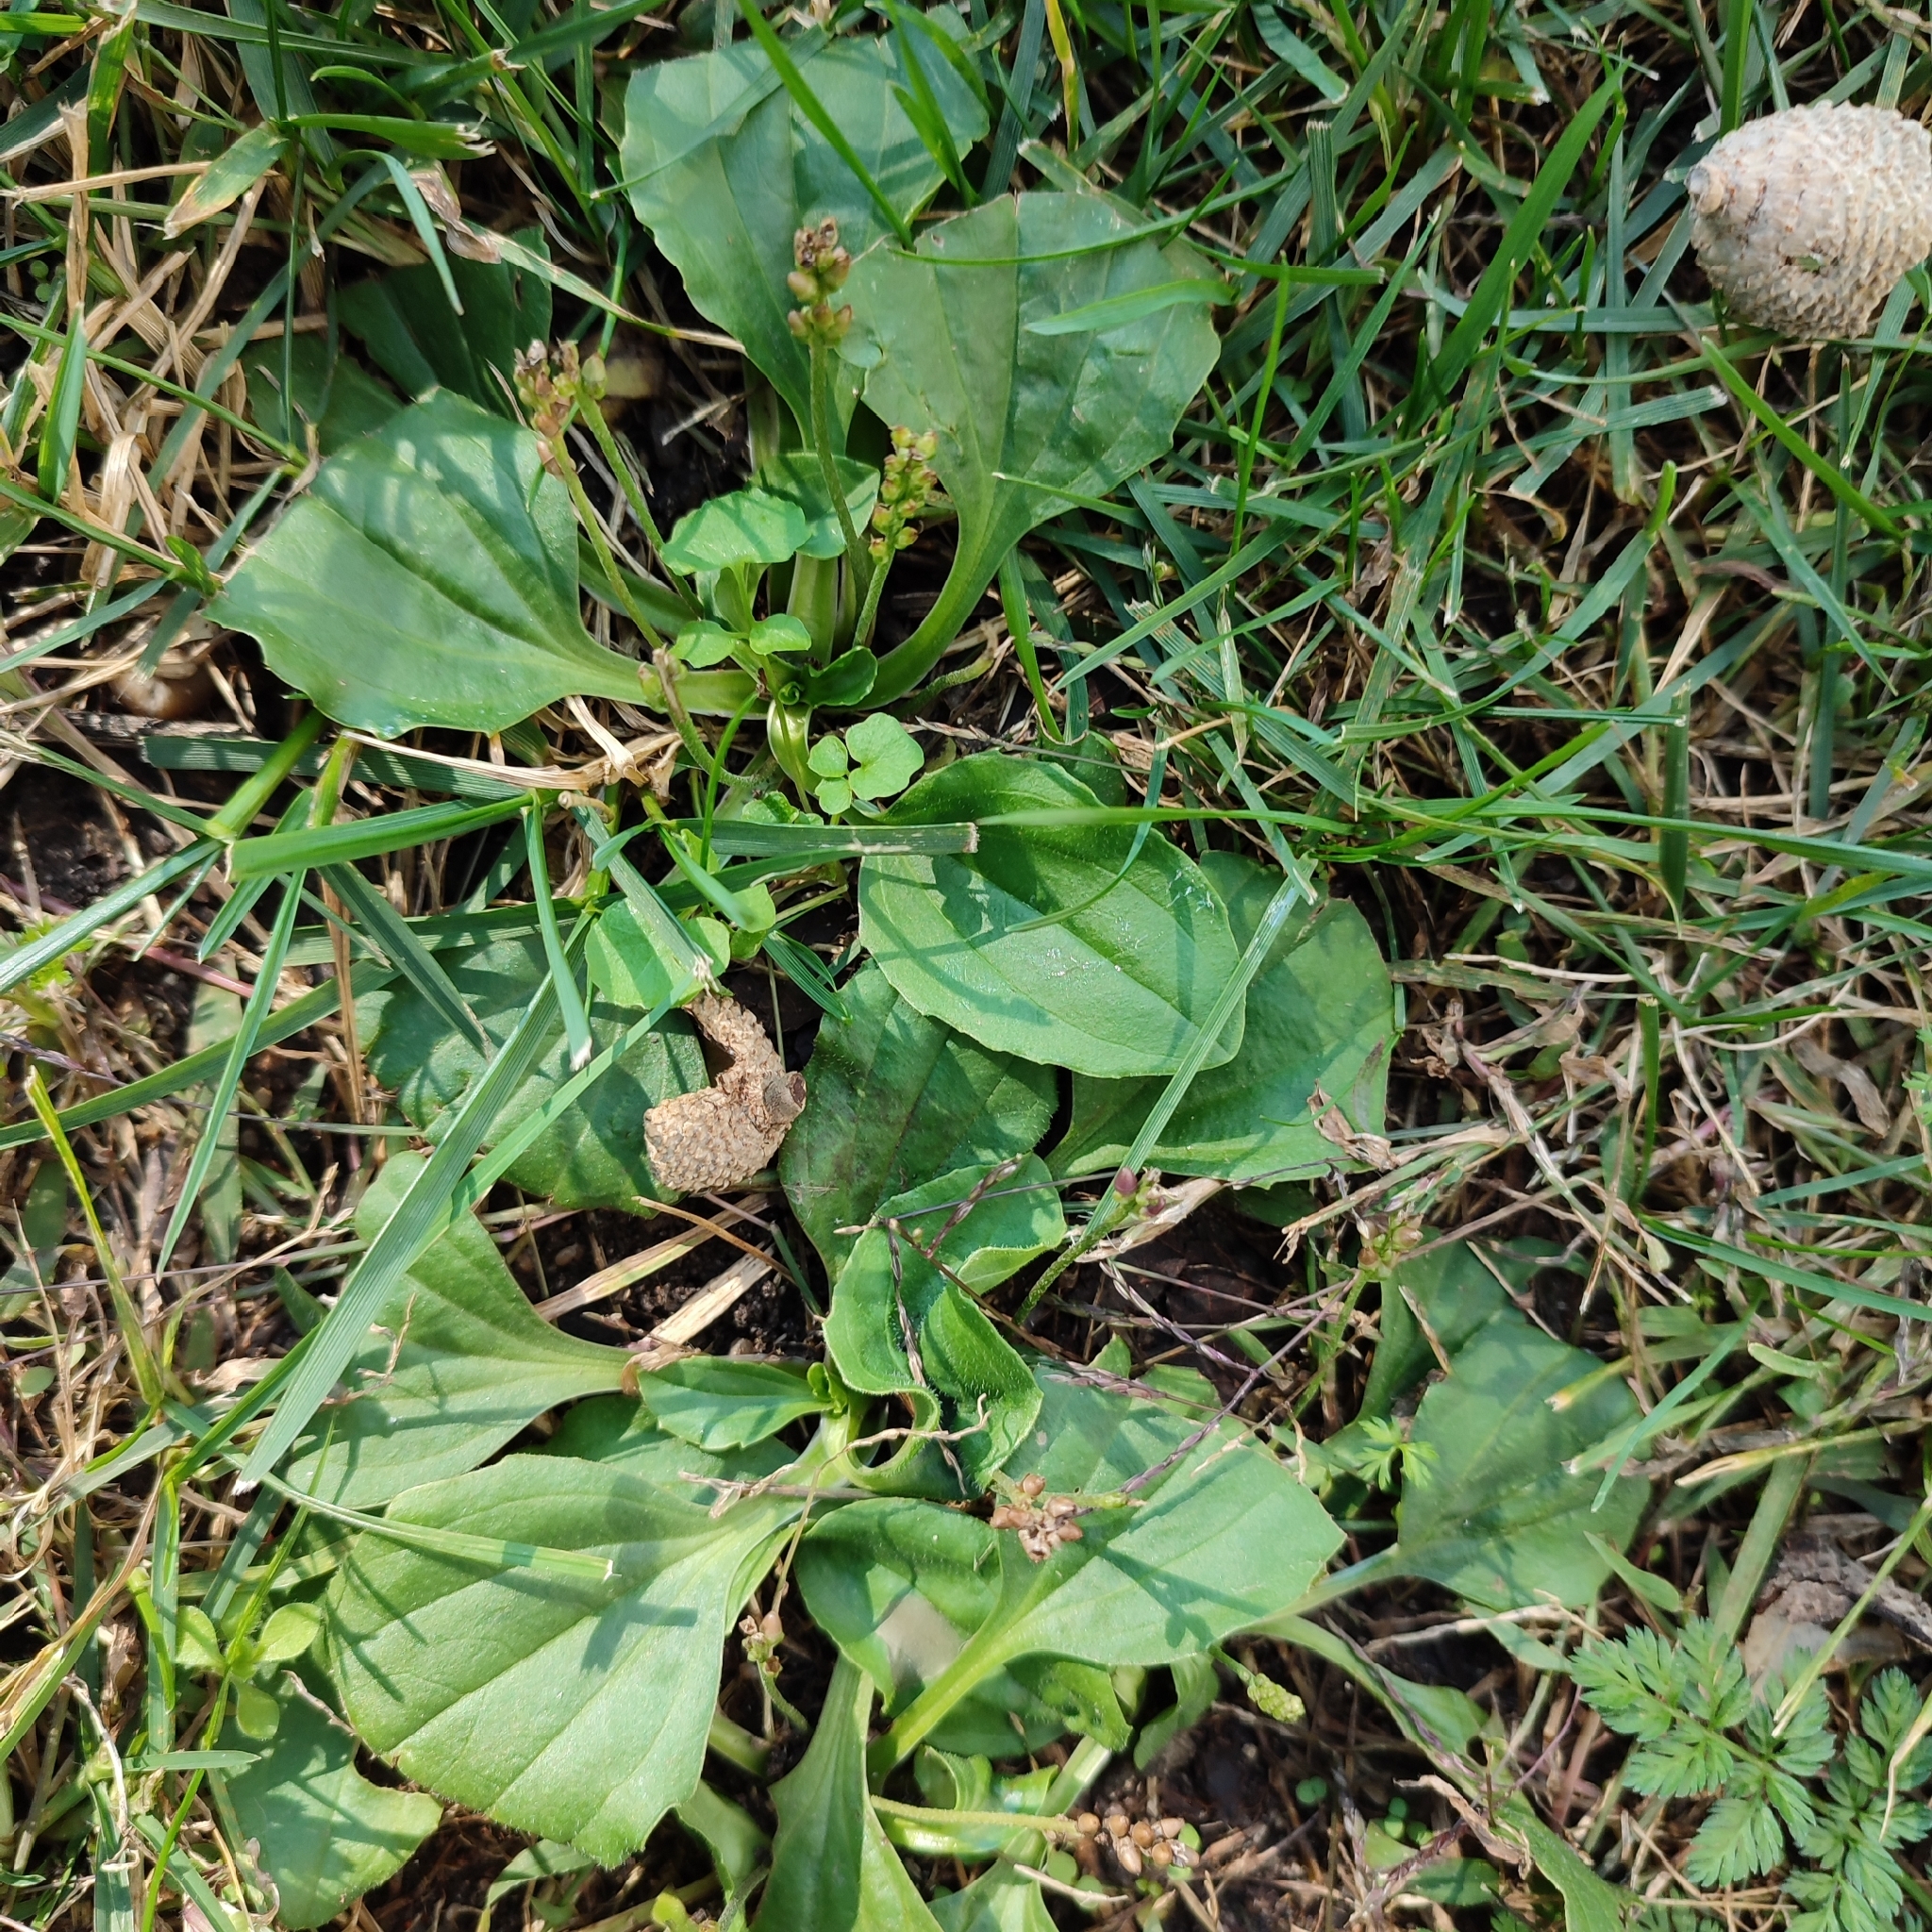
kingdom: Plantae
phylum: Tracheophyta
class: Magnoliopsida
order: Lamiales
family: Plantaginaceae
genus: Plantago
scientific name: Plantago major
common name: Common plantain
